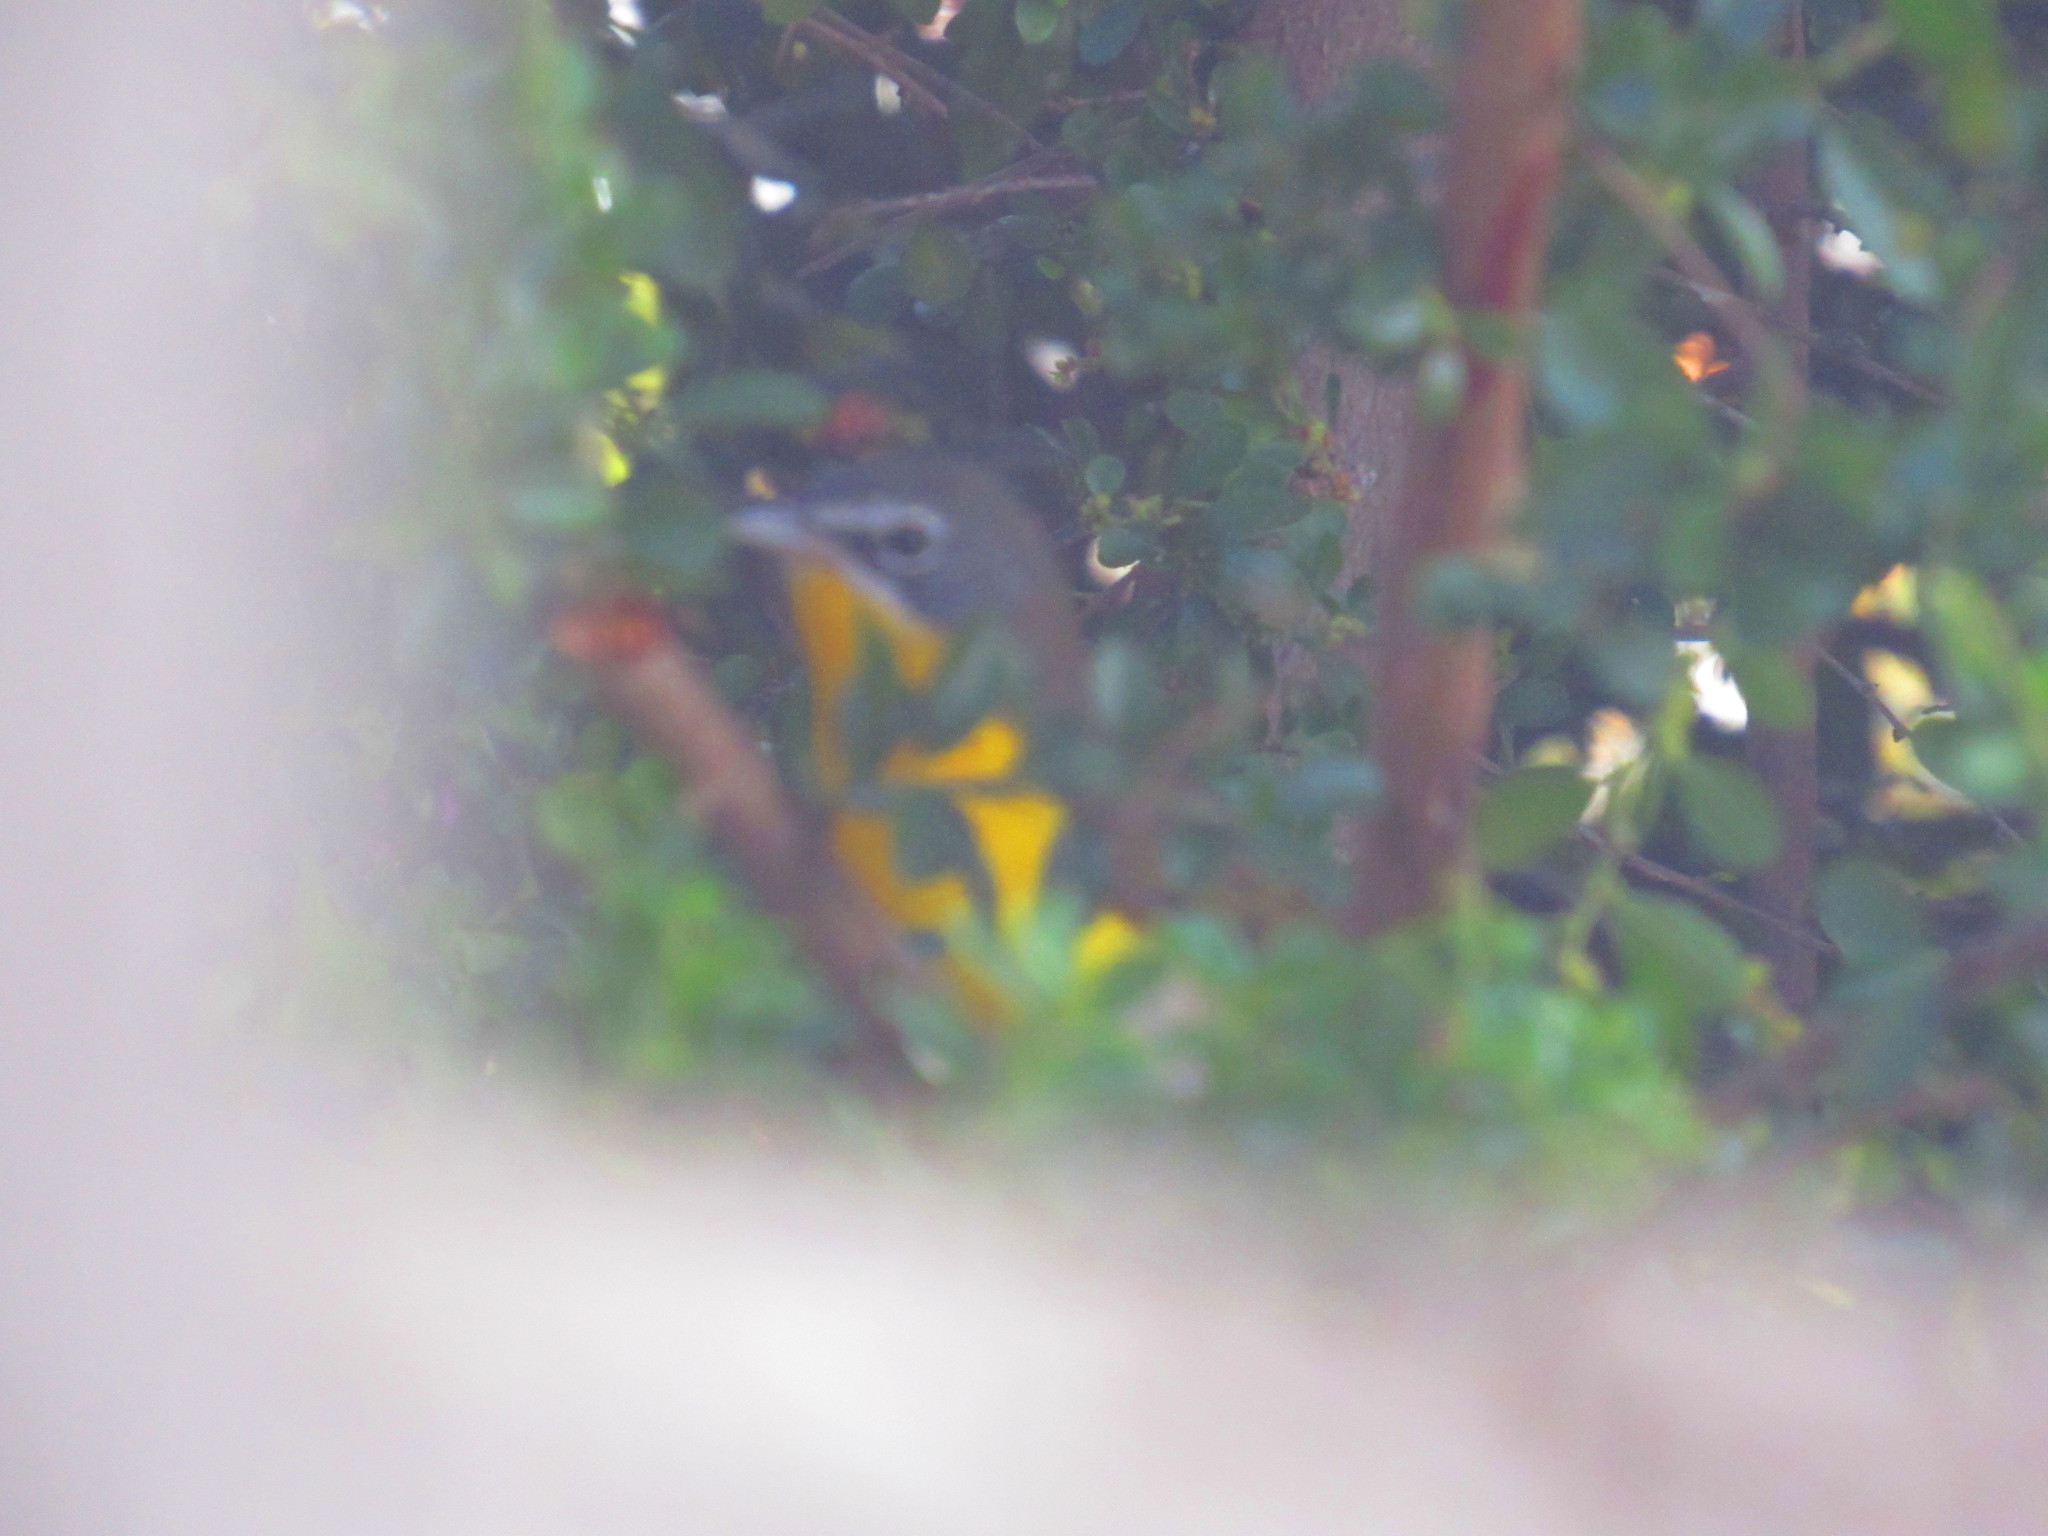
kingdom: Animalia
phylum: Chordata
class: Aves
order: Passeriformes
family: Parulidae
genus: Icteria
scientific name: Icteria virens
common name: Yellow-breasted chat
